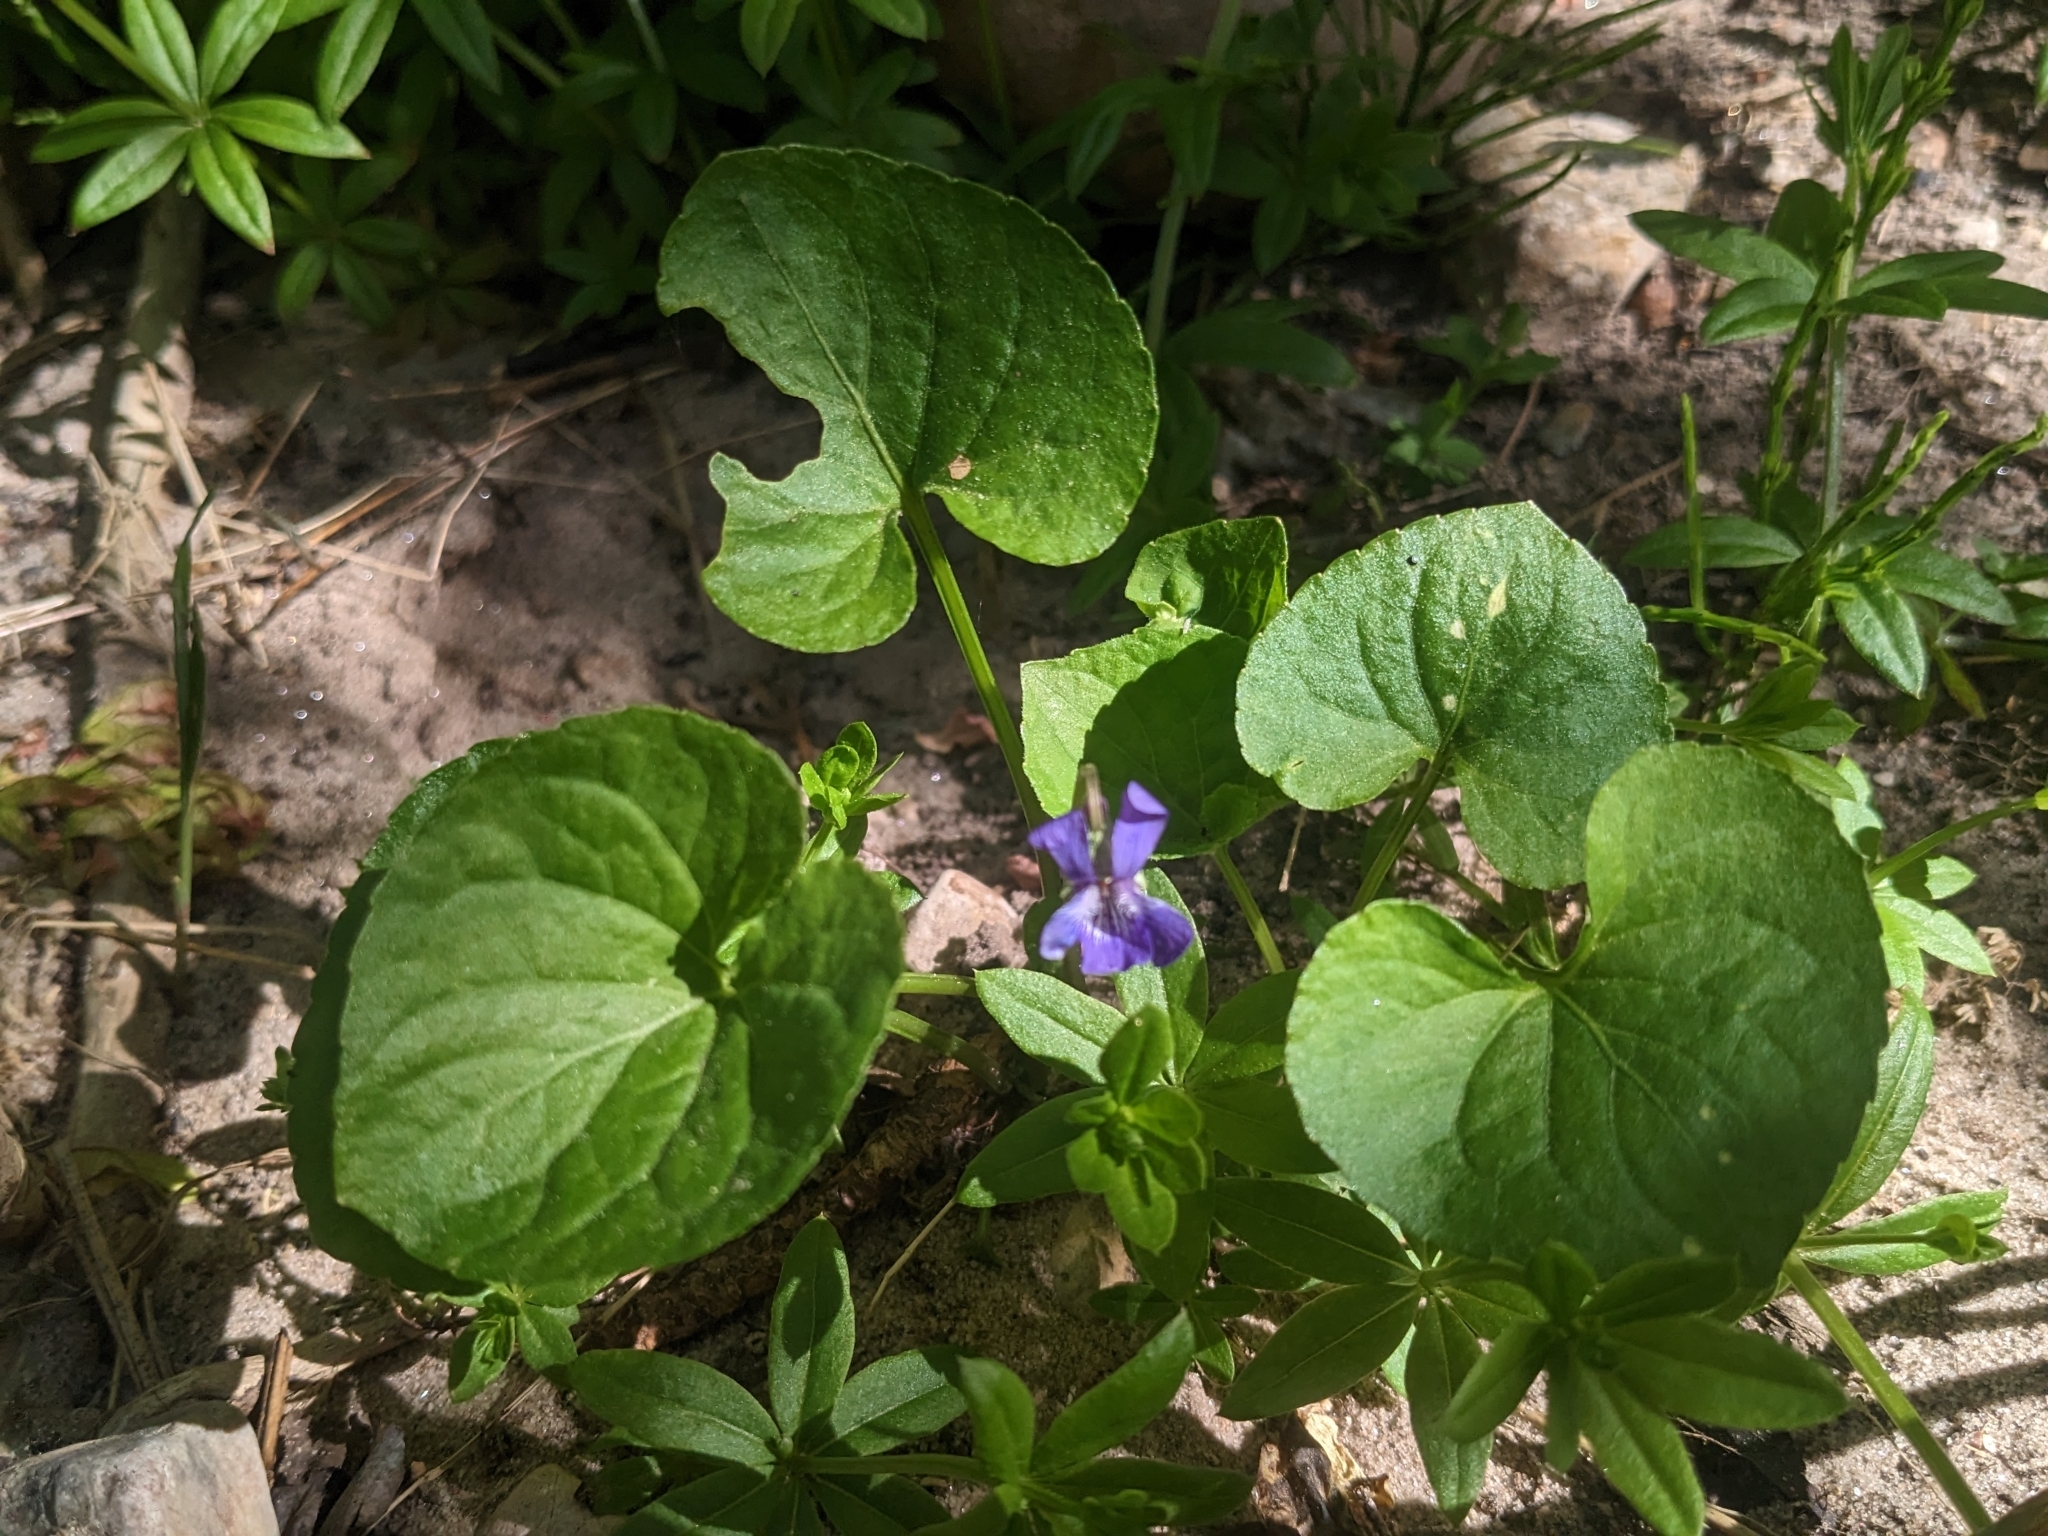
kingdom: Plantae
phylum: Tracheophyta
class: Magnoliopsida
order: Malpighiales
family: Violaceae
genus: Viola
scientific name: Viola nephrophylla
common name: Blue meadow violet
